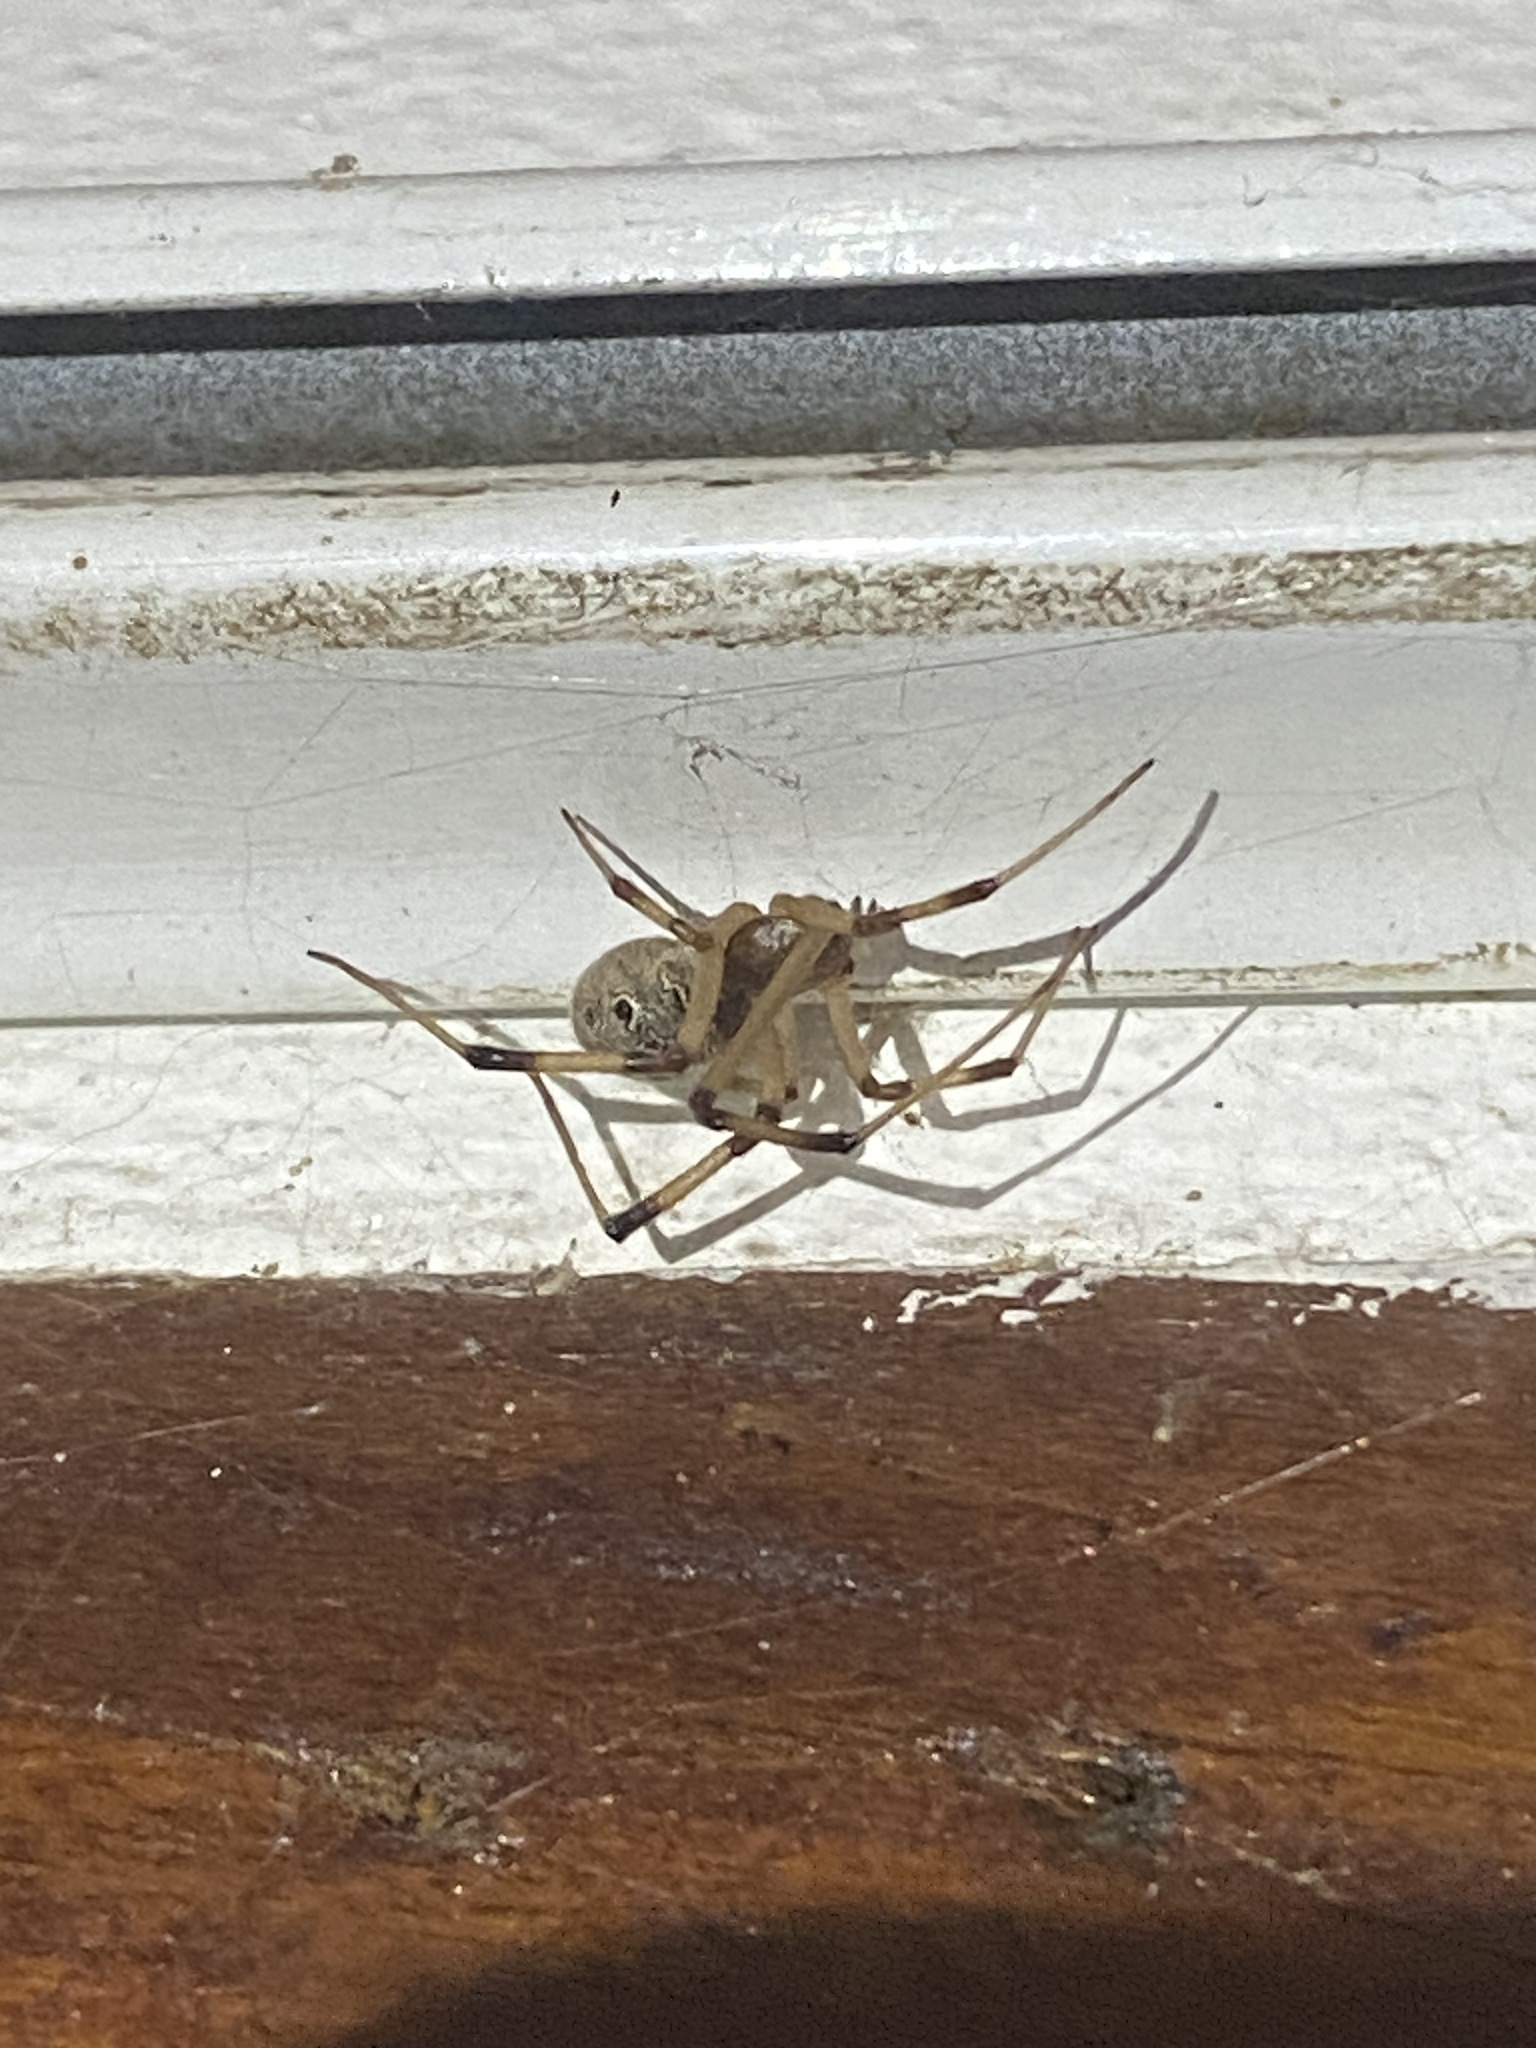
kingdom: Animalia
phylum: Arthropoda
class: Arachnida
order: Araneae
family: Theridiidae
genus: Latrodectus
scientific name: Latrodectus geometricus
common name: Brown widow spider
